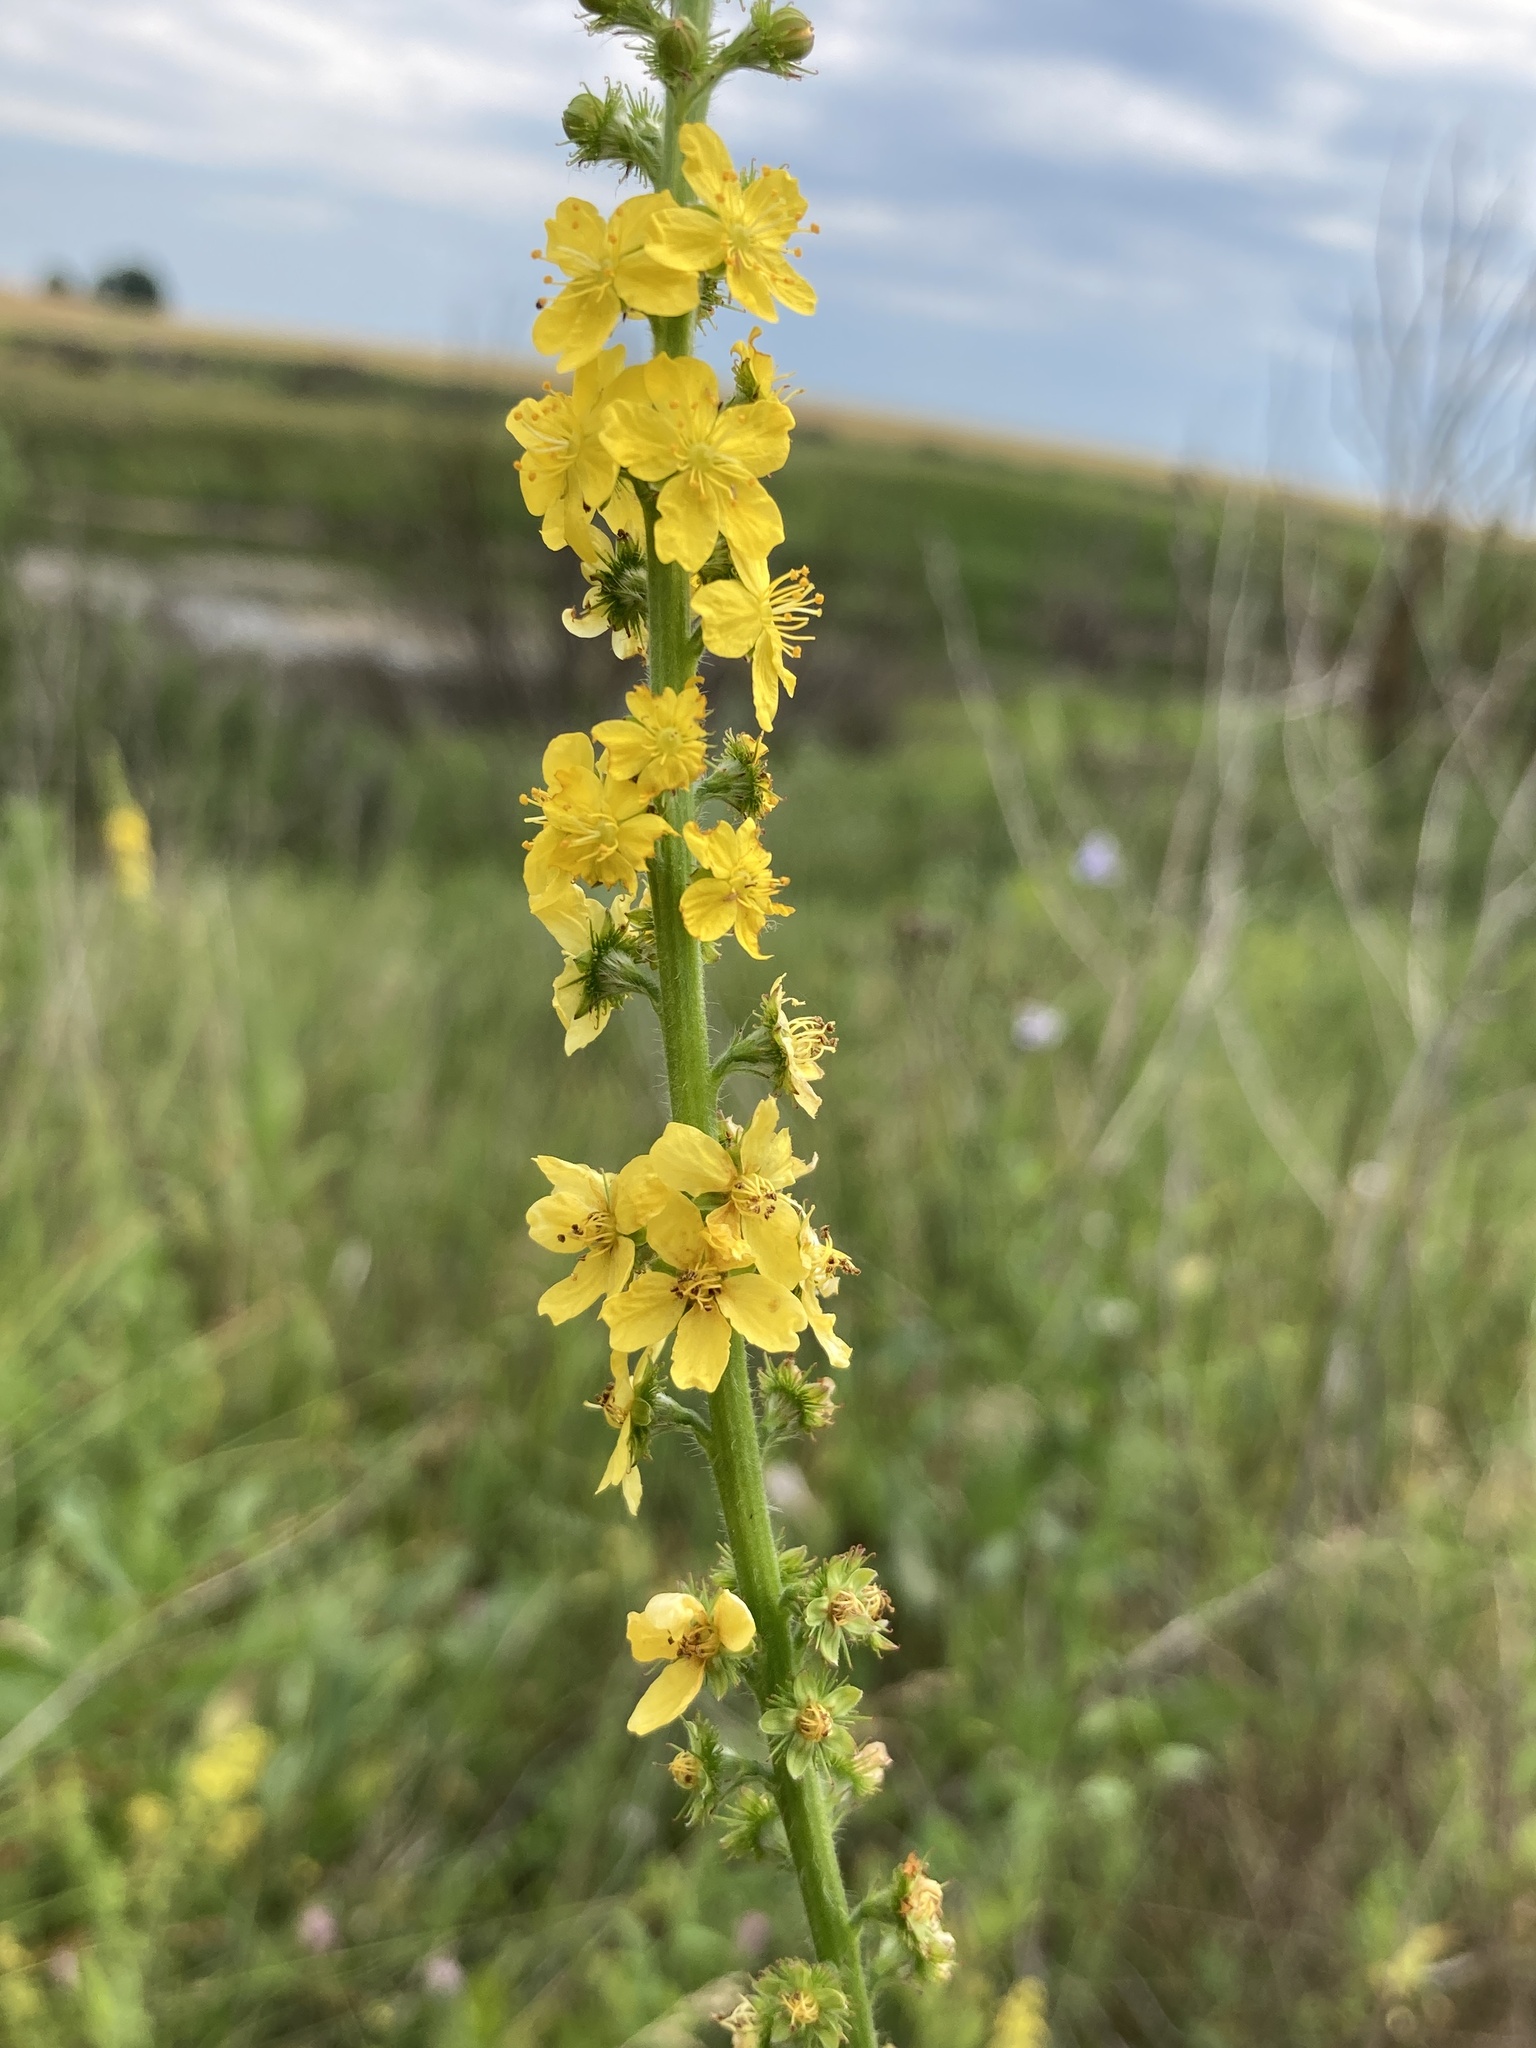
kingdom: Plantae
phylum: Tracheophyta
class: Magnoliopsida
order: Rosales
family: Rosaceae
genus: Agrimonia
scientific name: Agrimonia eupatoria
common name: Agrimony
